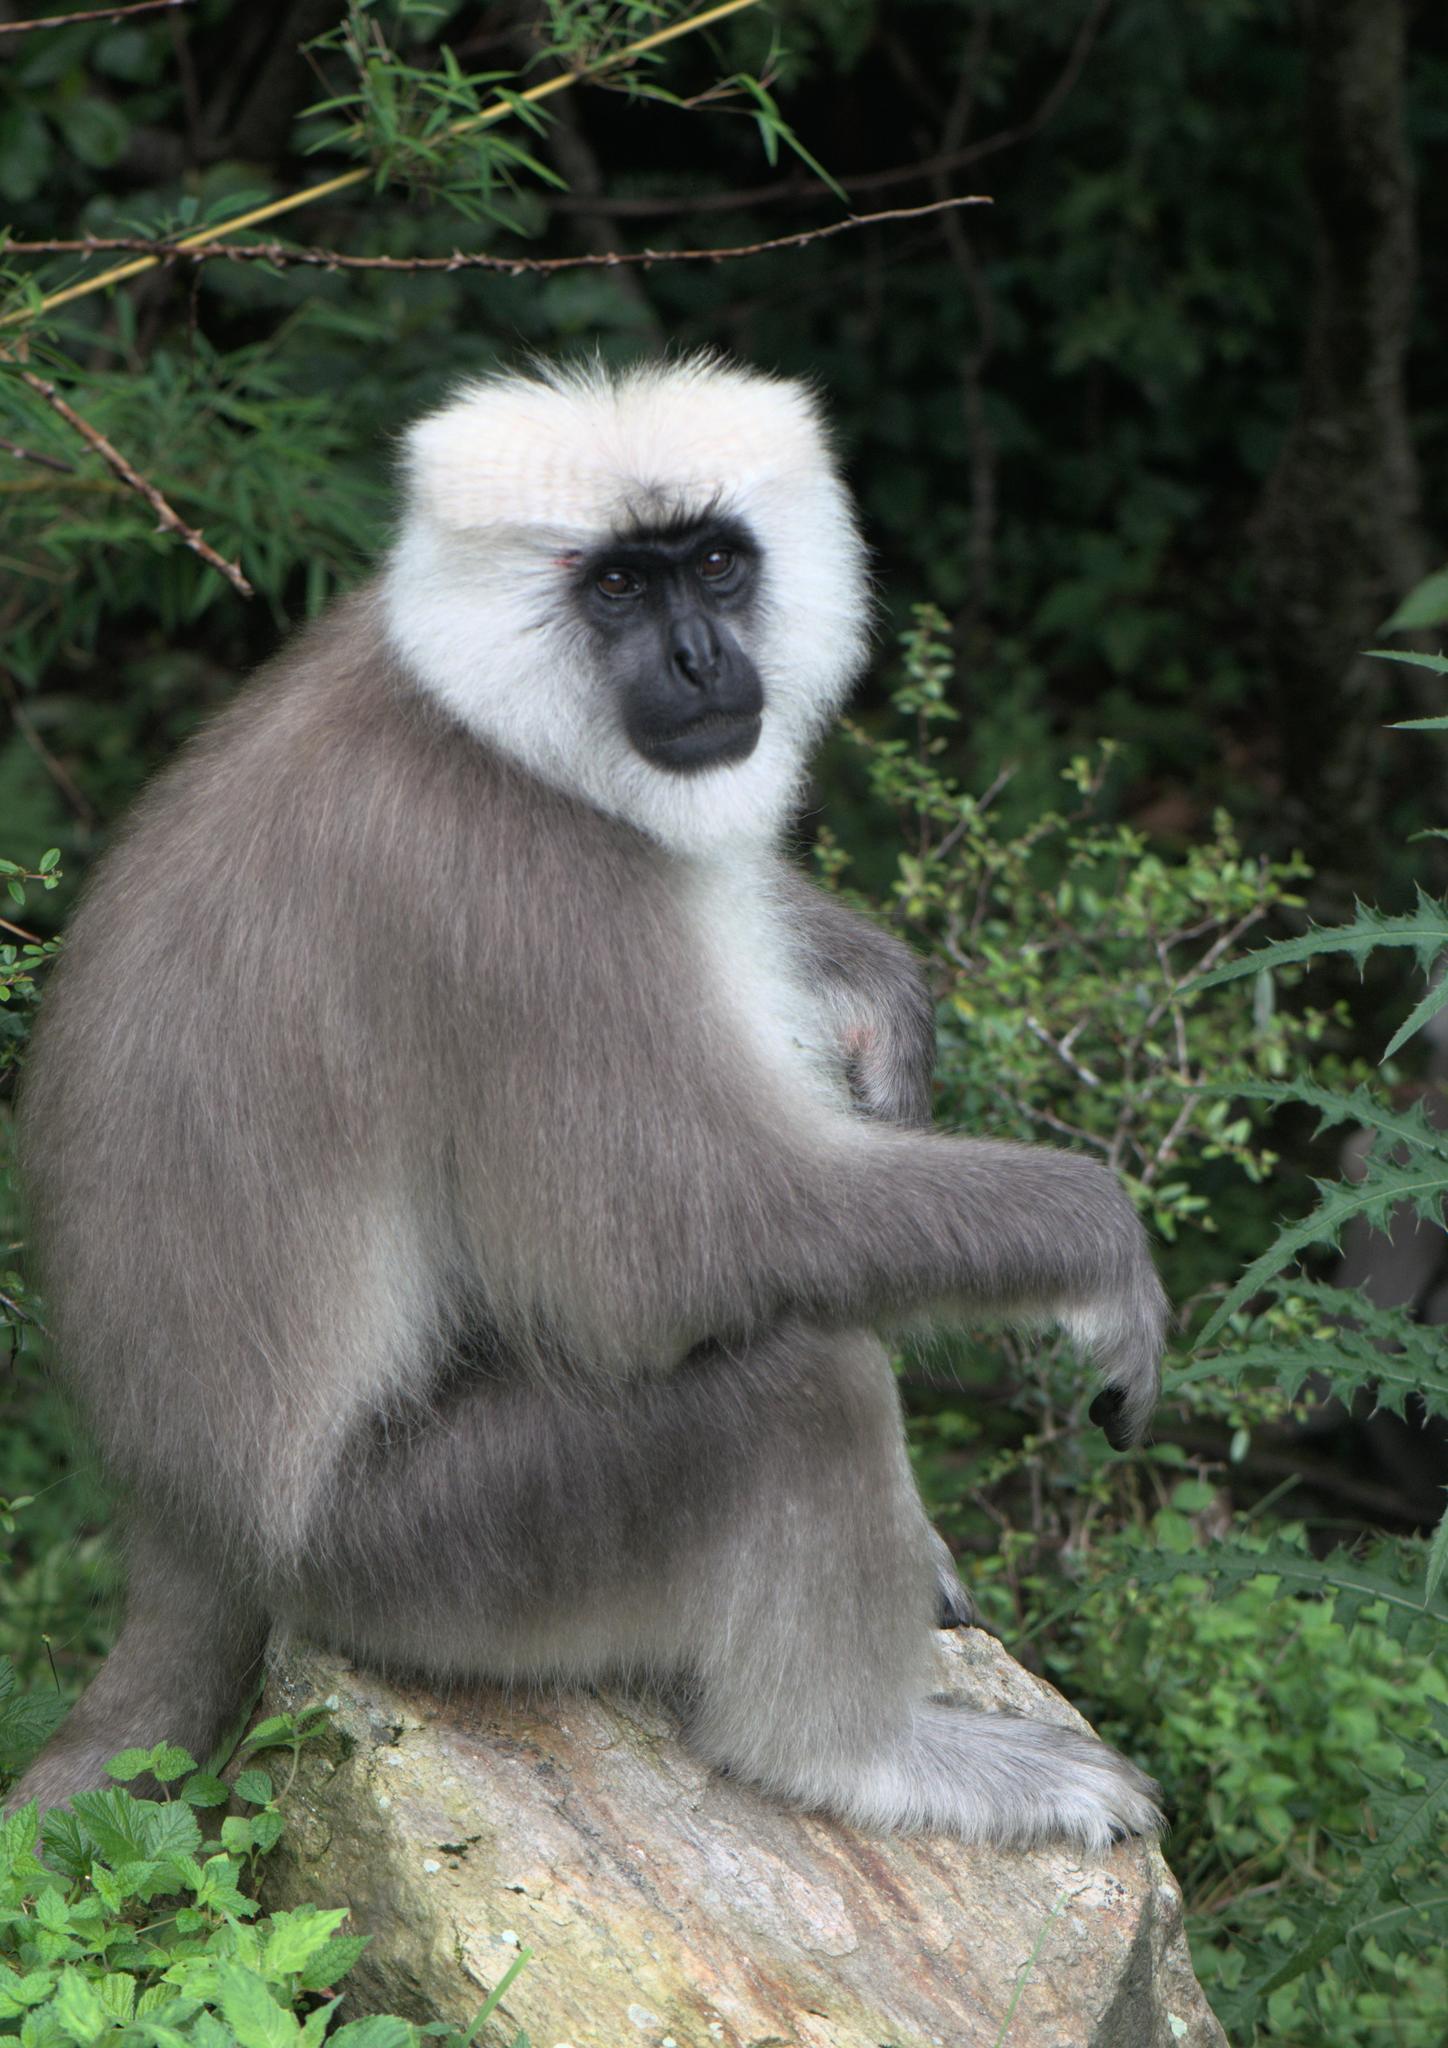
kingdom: Animalia
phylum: Chordata
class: Mammalia
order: Primates
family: Cercopithecidae
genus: Semnopithecus
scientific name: Semnopithecus schistaceus
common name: Nepal gray langur
